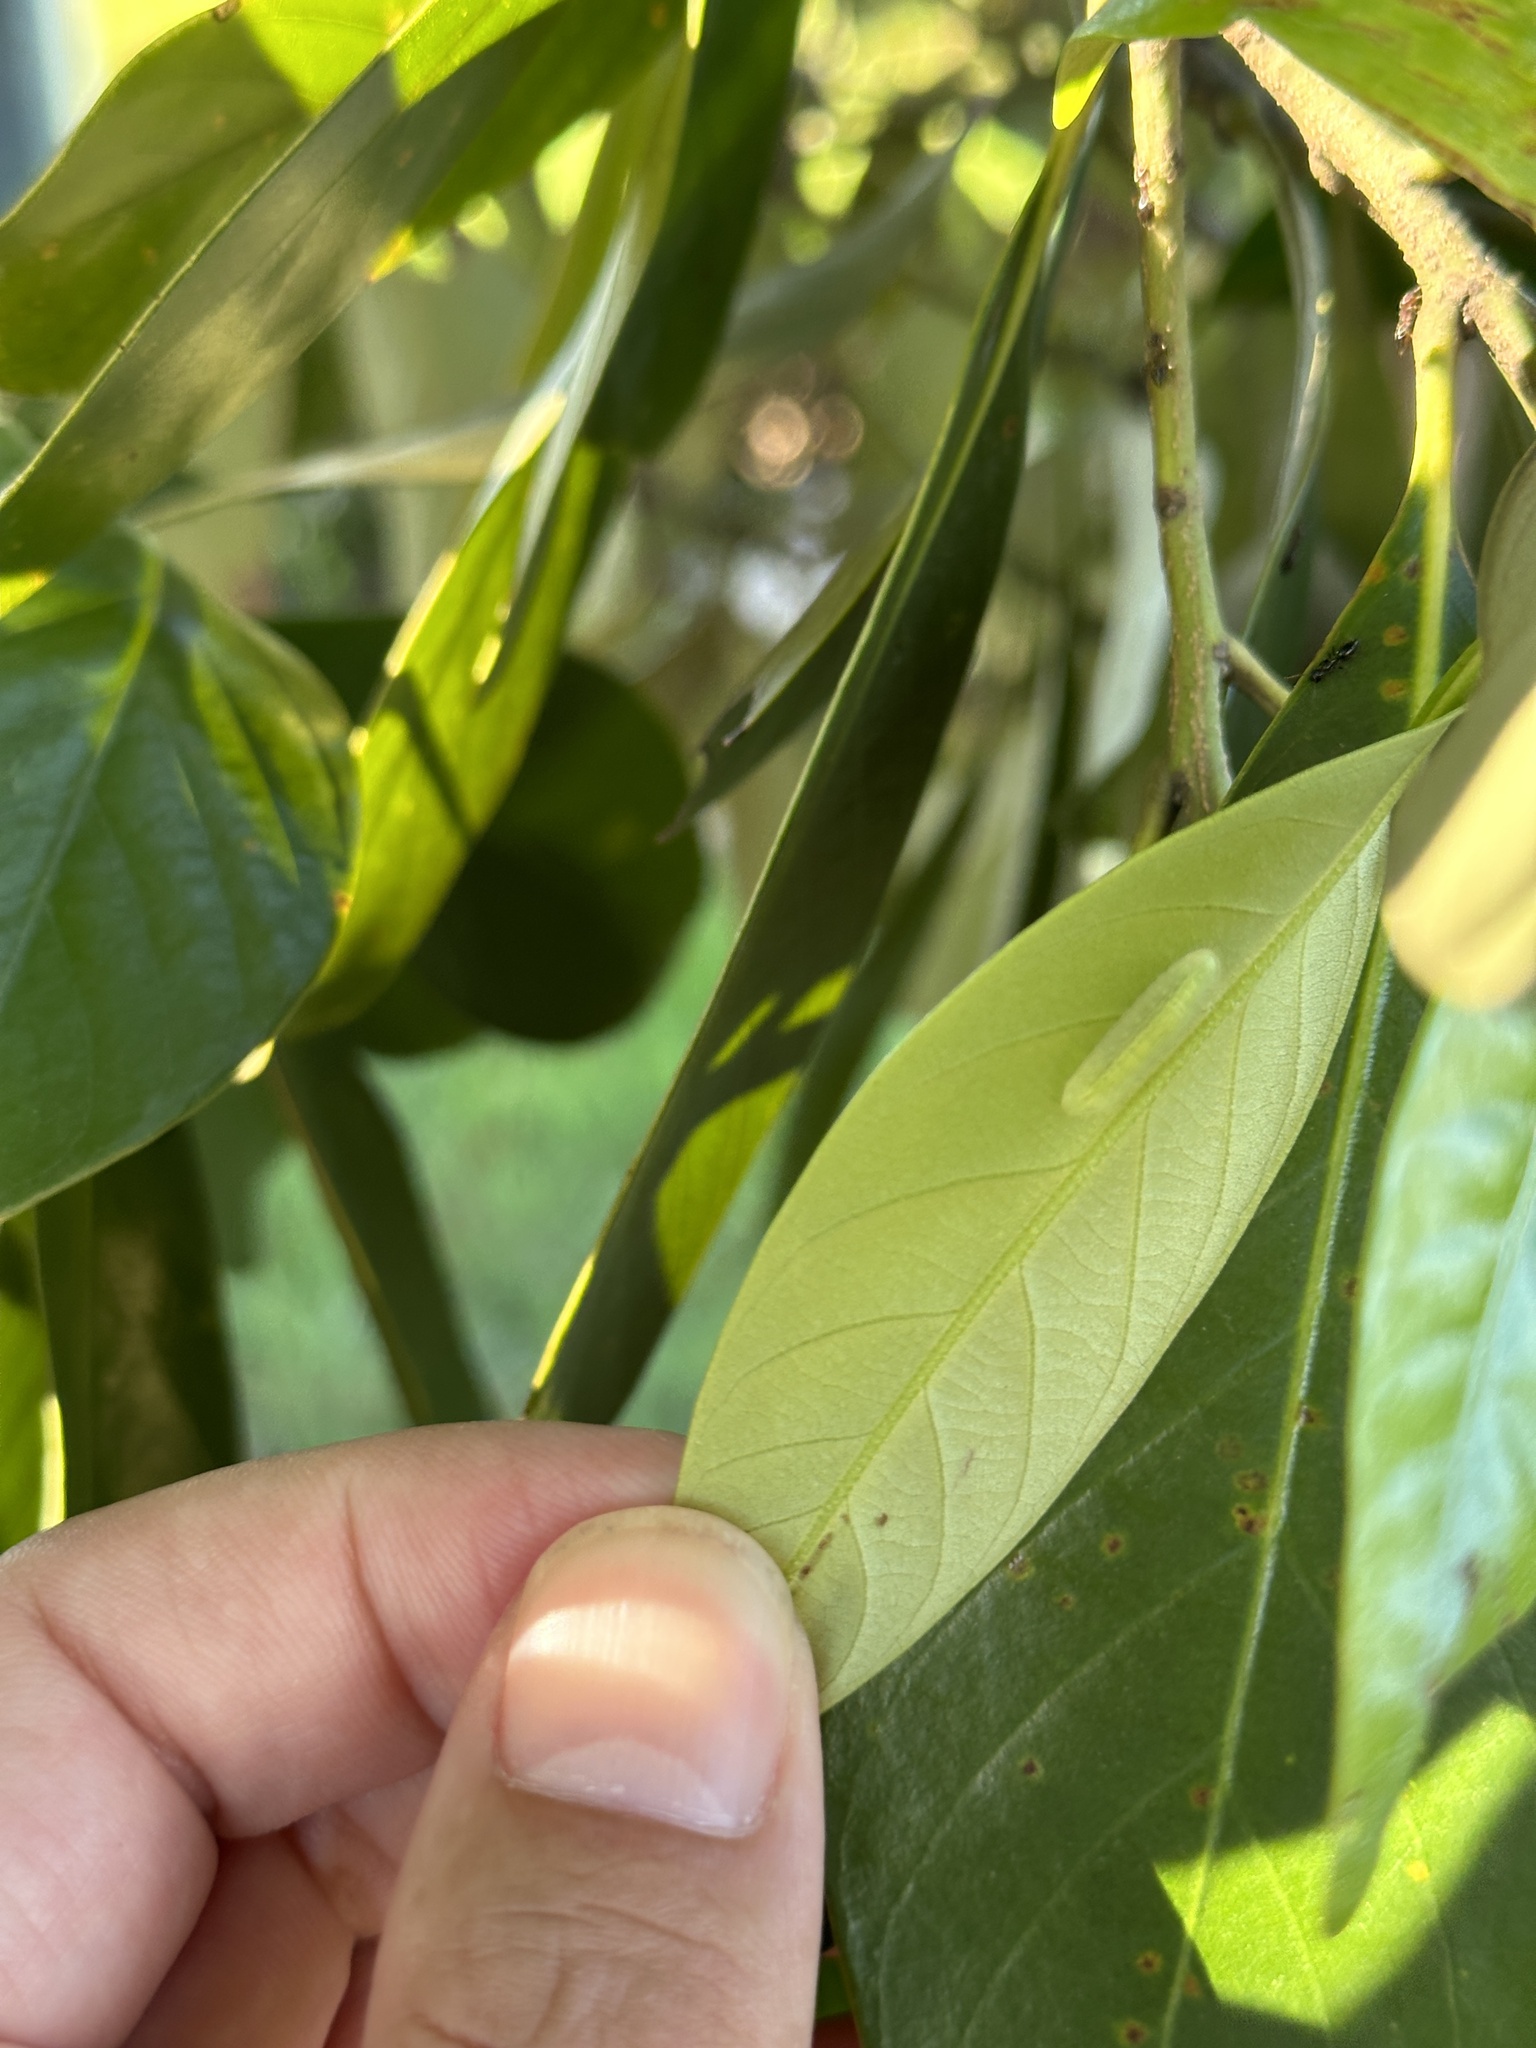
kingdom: Animalia
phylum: Arthropoda
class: Insecta
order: Lepidoptera
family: Lycaenidae
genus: Arhopala
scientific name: Arhopala bazalus
